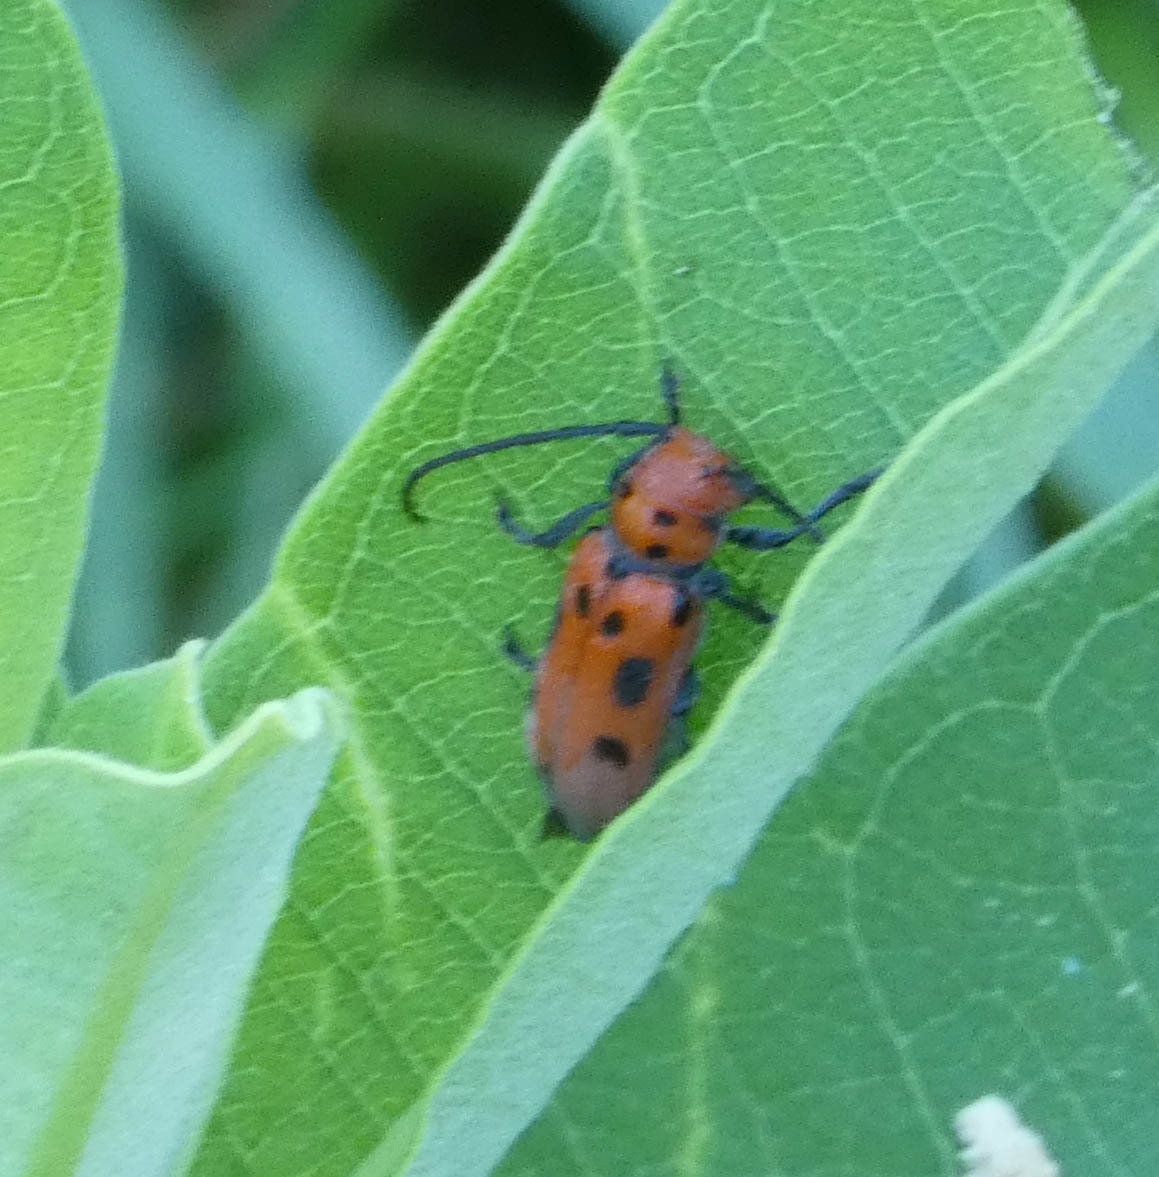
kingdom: Animalia
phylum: Arthropoda
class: Insecta
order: Coleoptera
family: Cerambycidae
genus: Tetraopes
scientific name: Tetraopes tetrophthalmus
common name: Red milkweed beetle
